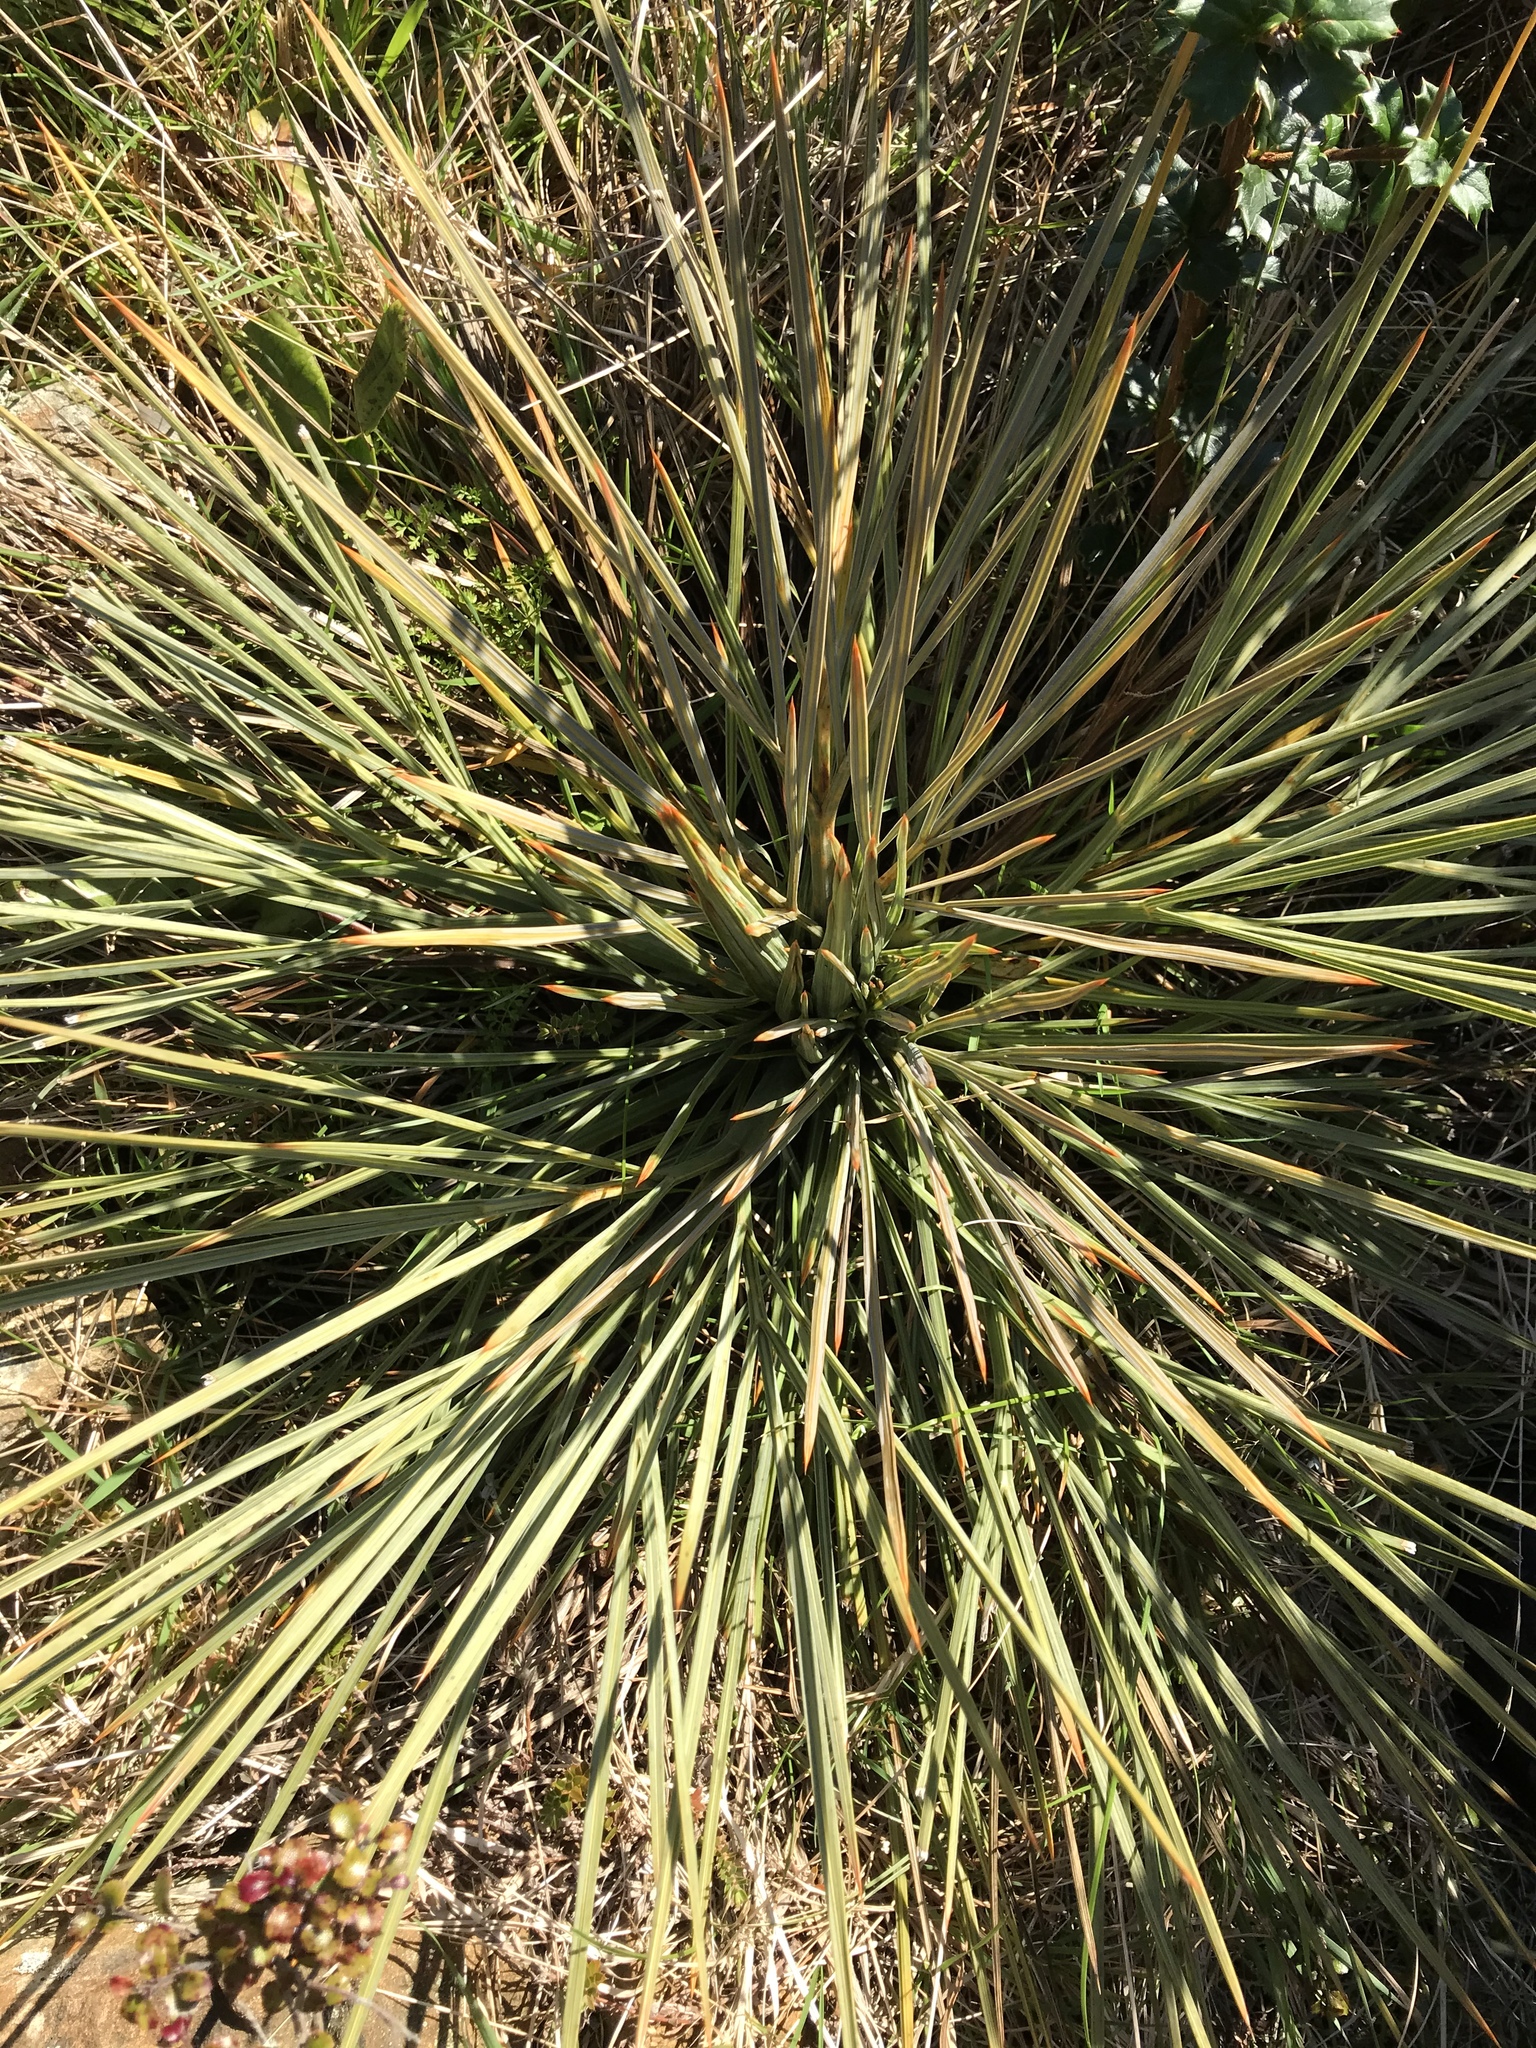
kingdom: Plantae
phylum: Tracheophyta
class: Magnoliopsida
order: Apiales
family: Apiaceae
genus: Aciphylla
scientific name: Aciphylla squarrosa
